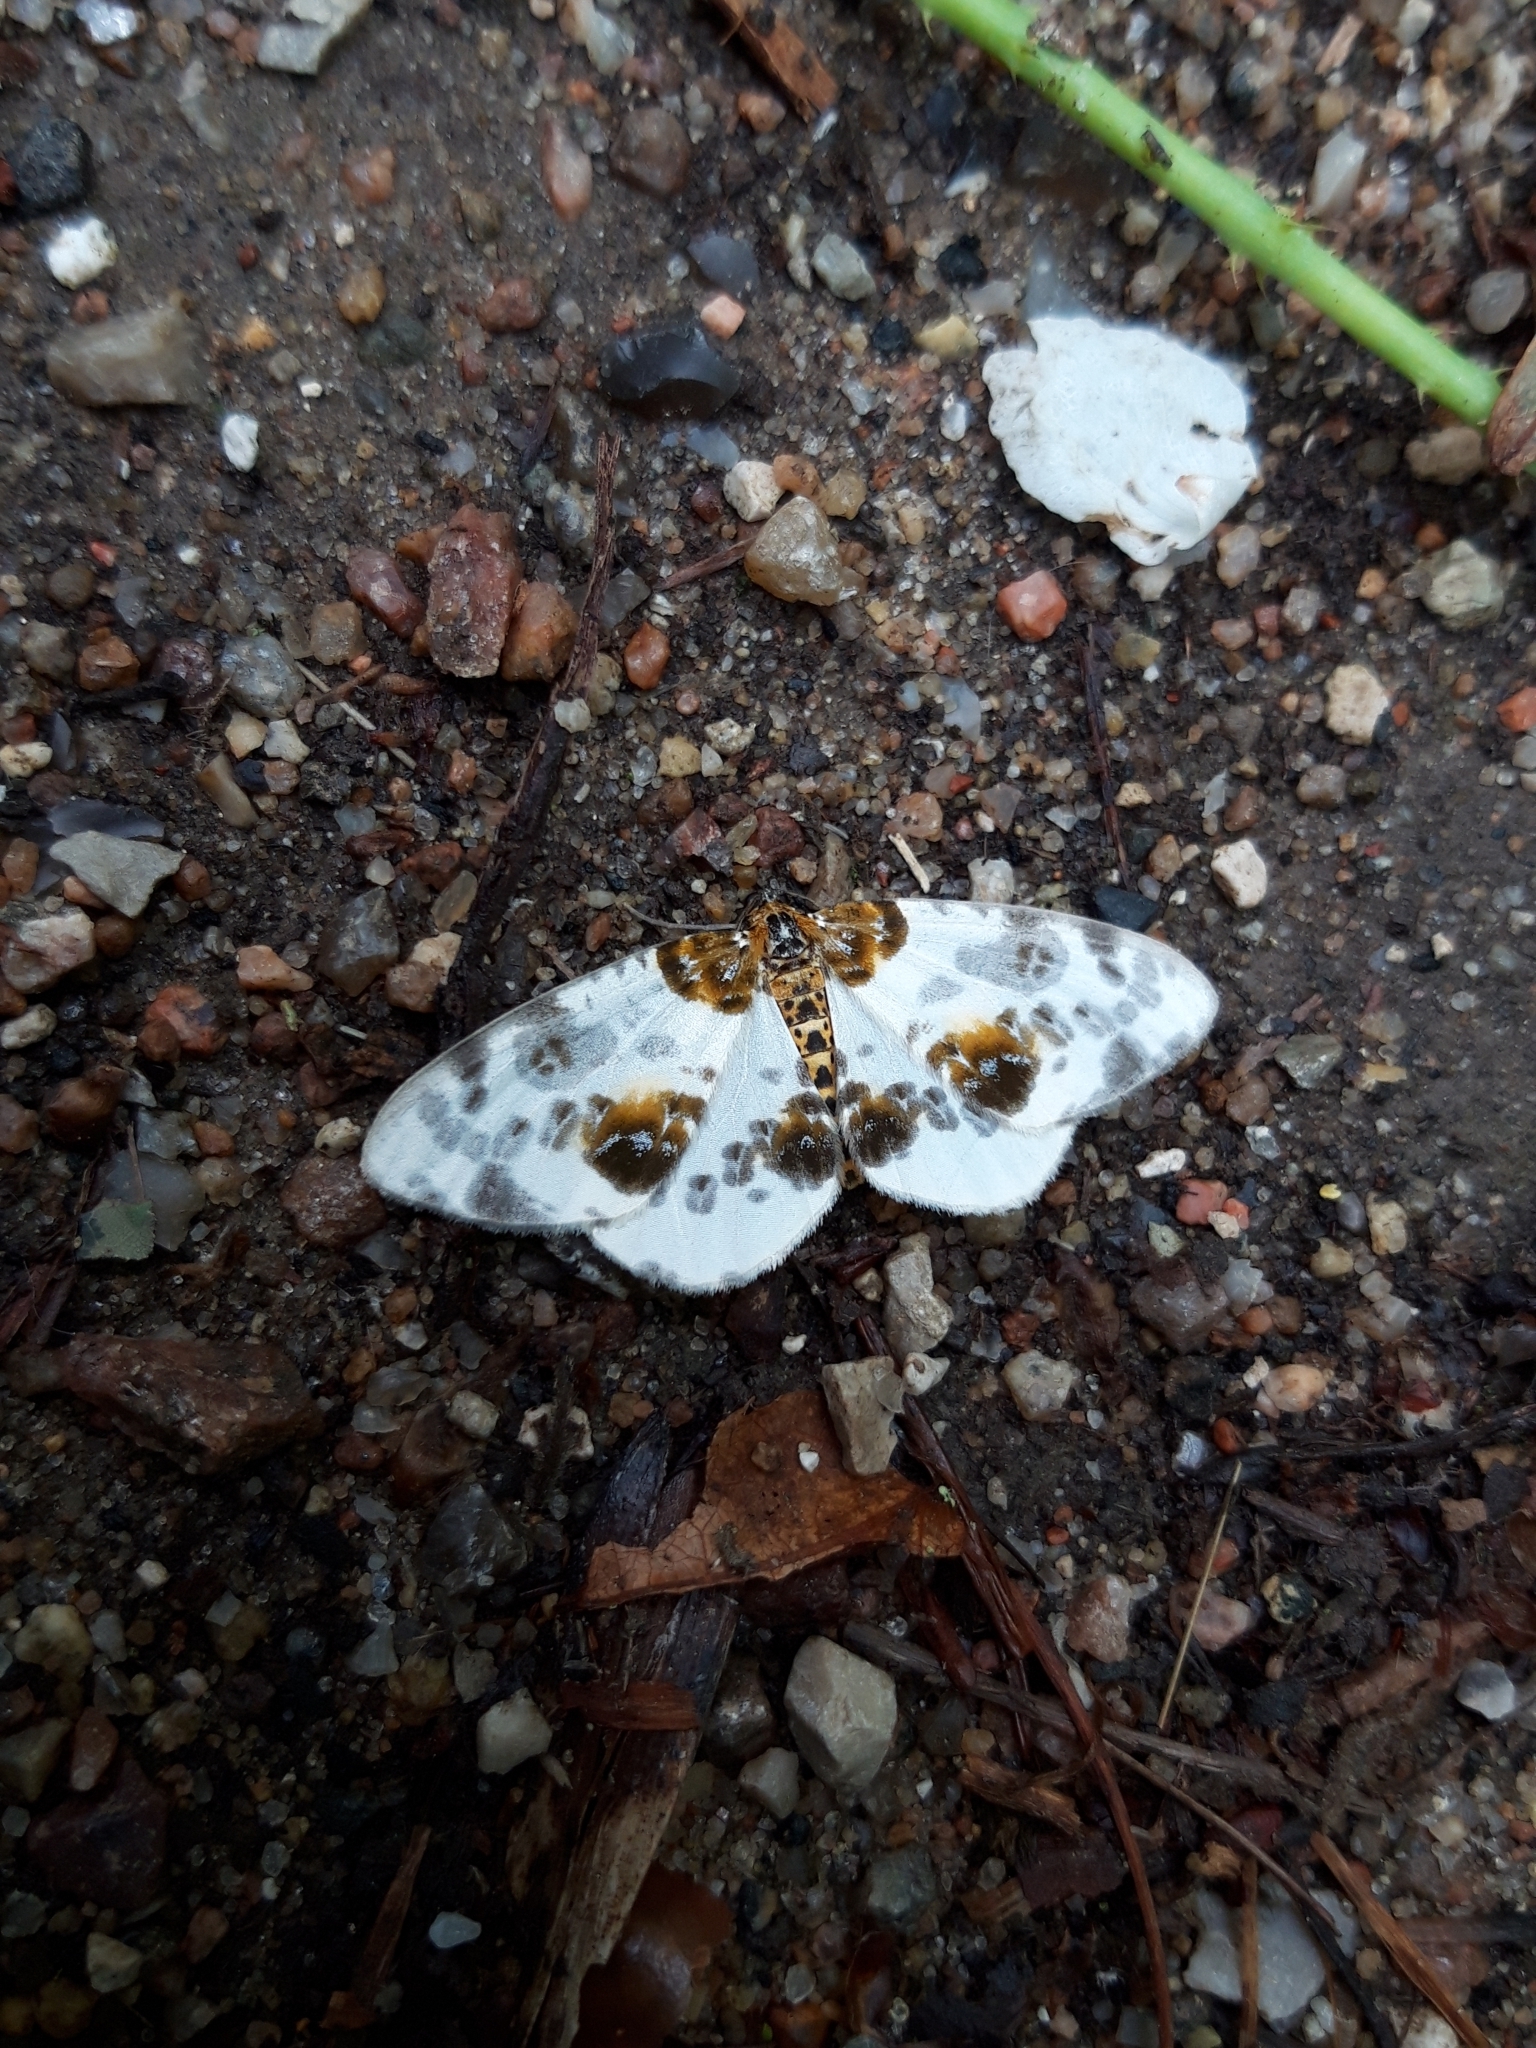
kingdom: Animalia
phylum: Arthropoda
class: Insecta
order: Lepidoptera
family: Geometridae
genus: Abraxas
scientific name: Abraxas sylvata
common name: Clouded magpie
